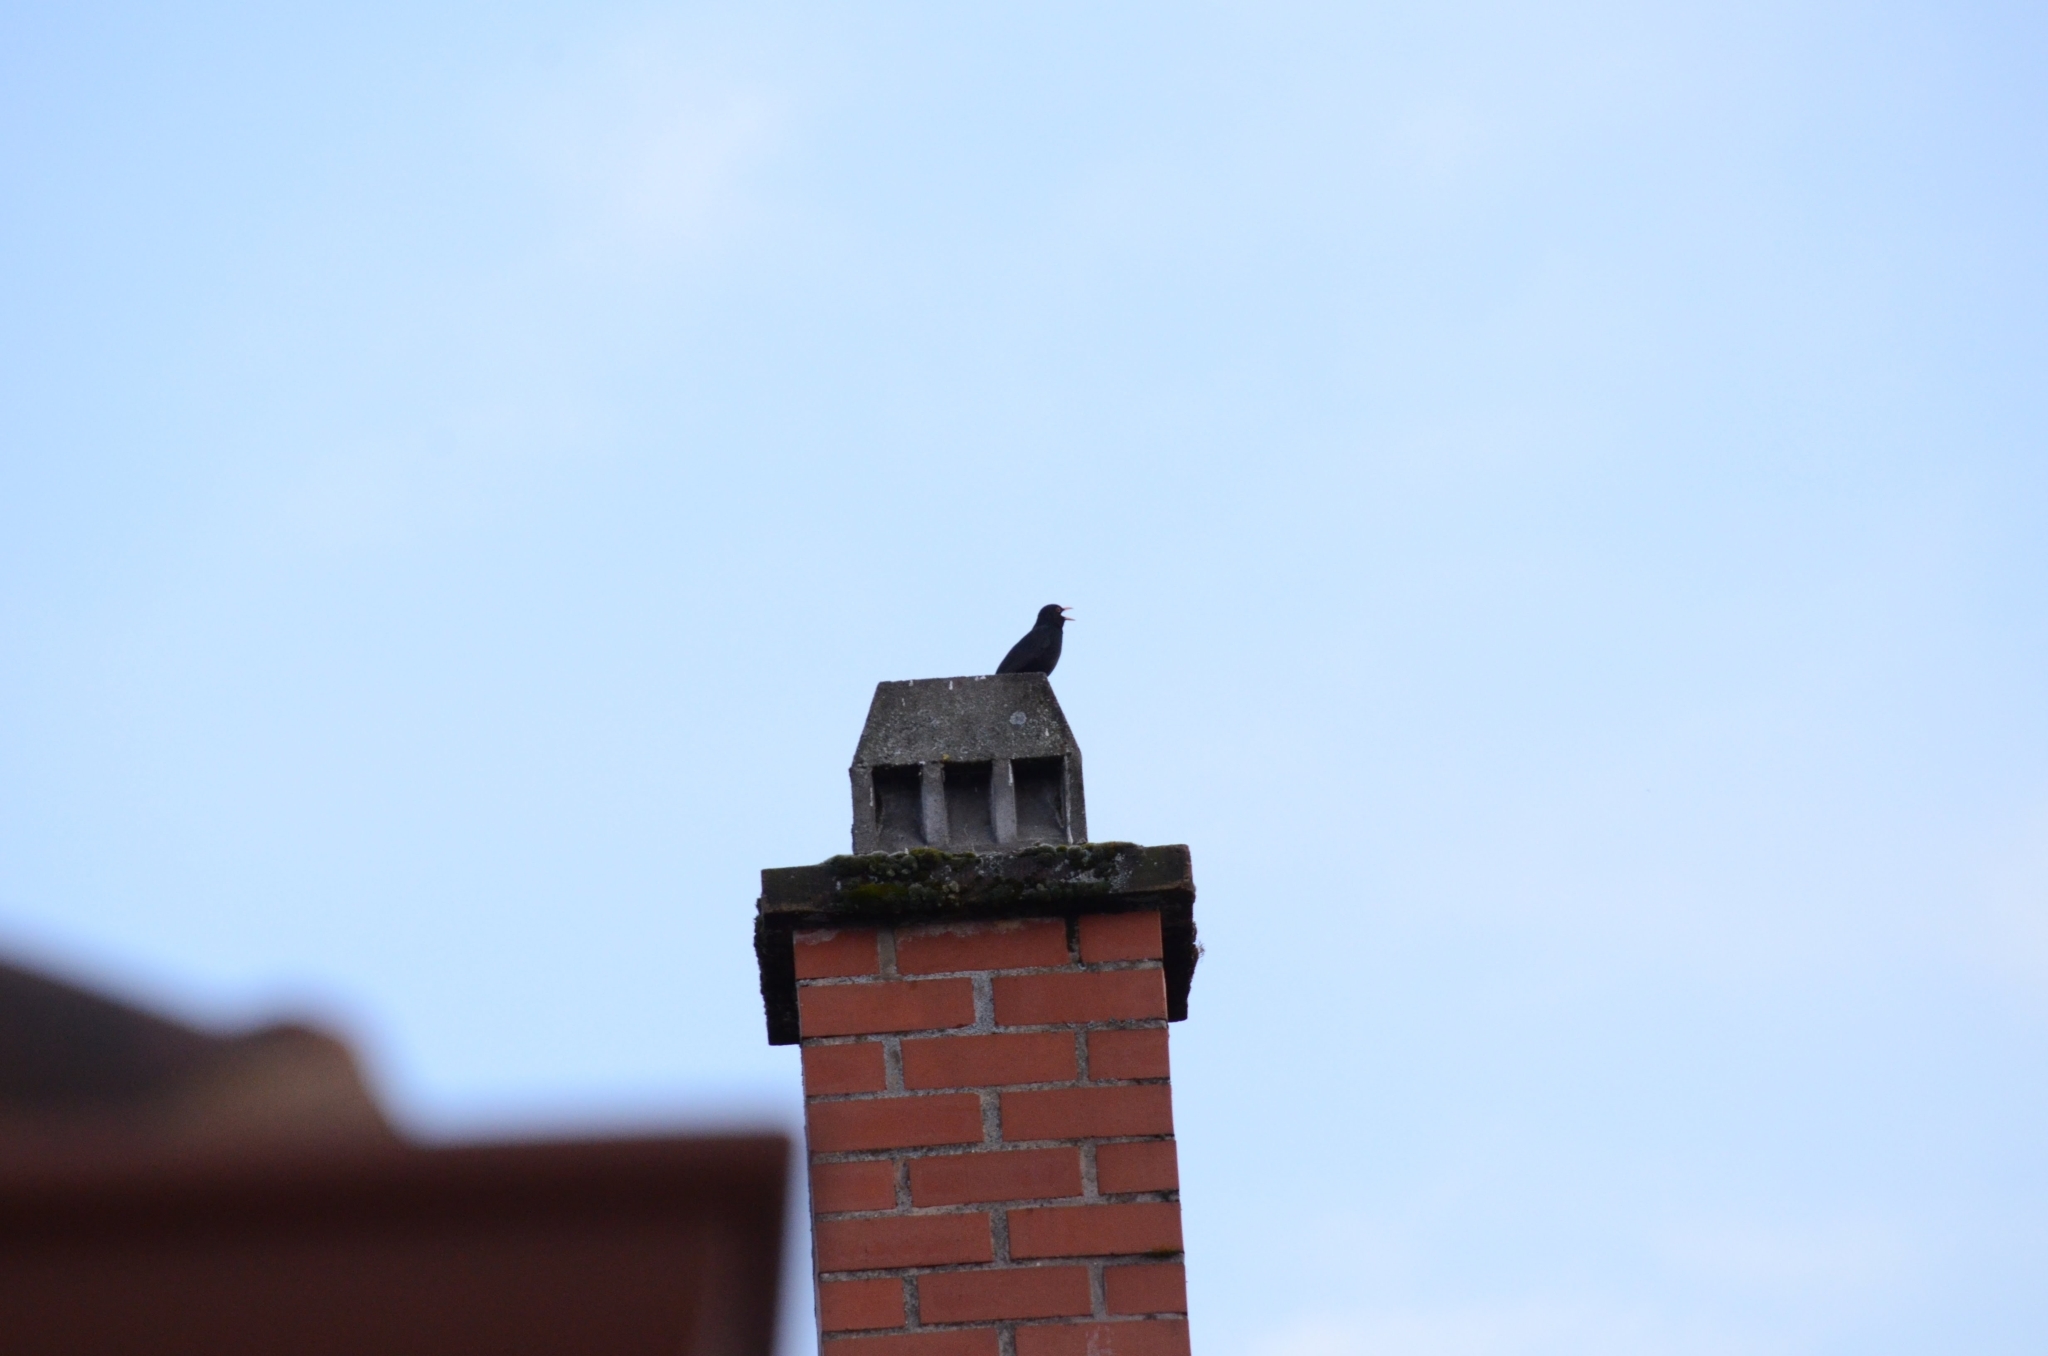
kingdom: Animalia
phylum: Chordata
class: Aves
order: Passeriformes
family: Turdidae
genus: Turdus
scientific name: Turdus merula
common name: Common blackbird
